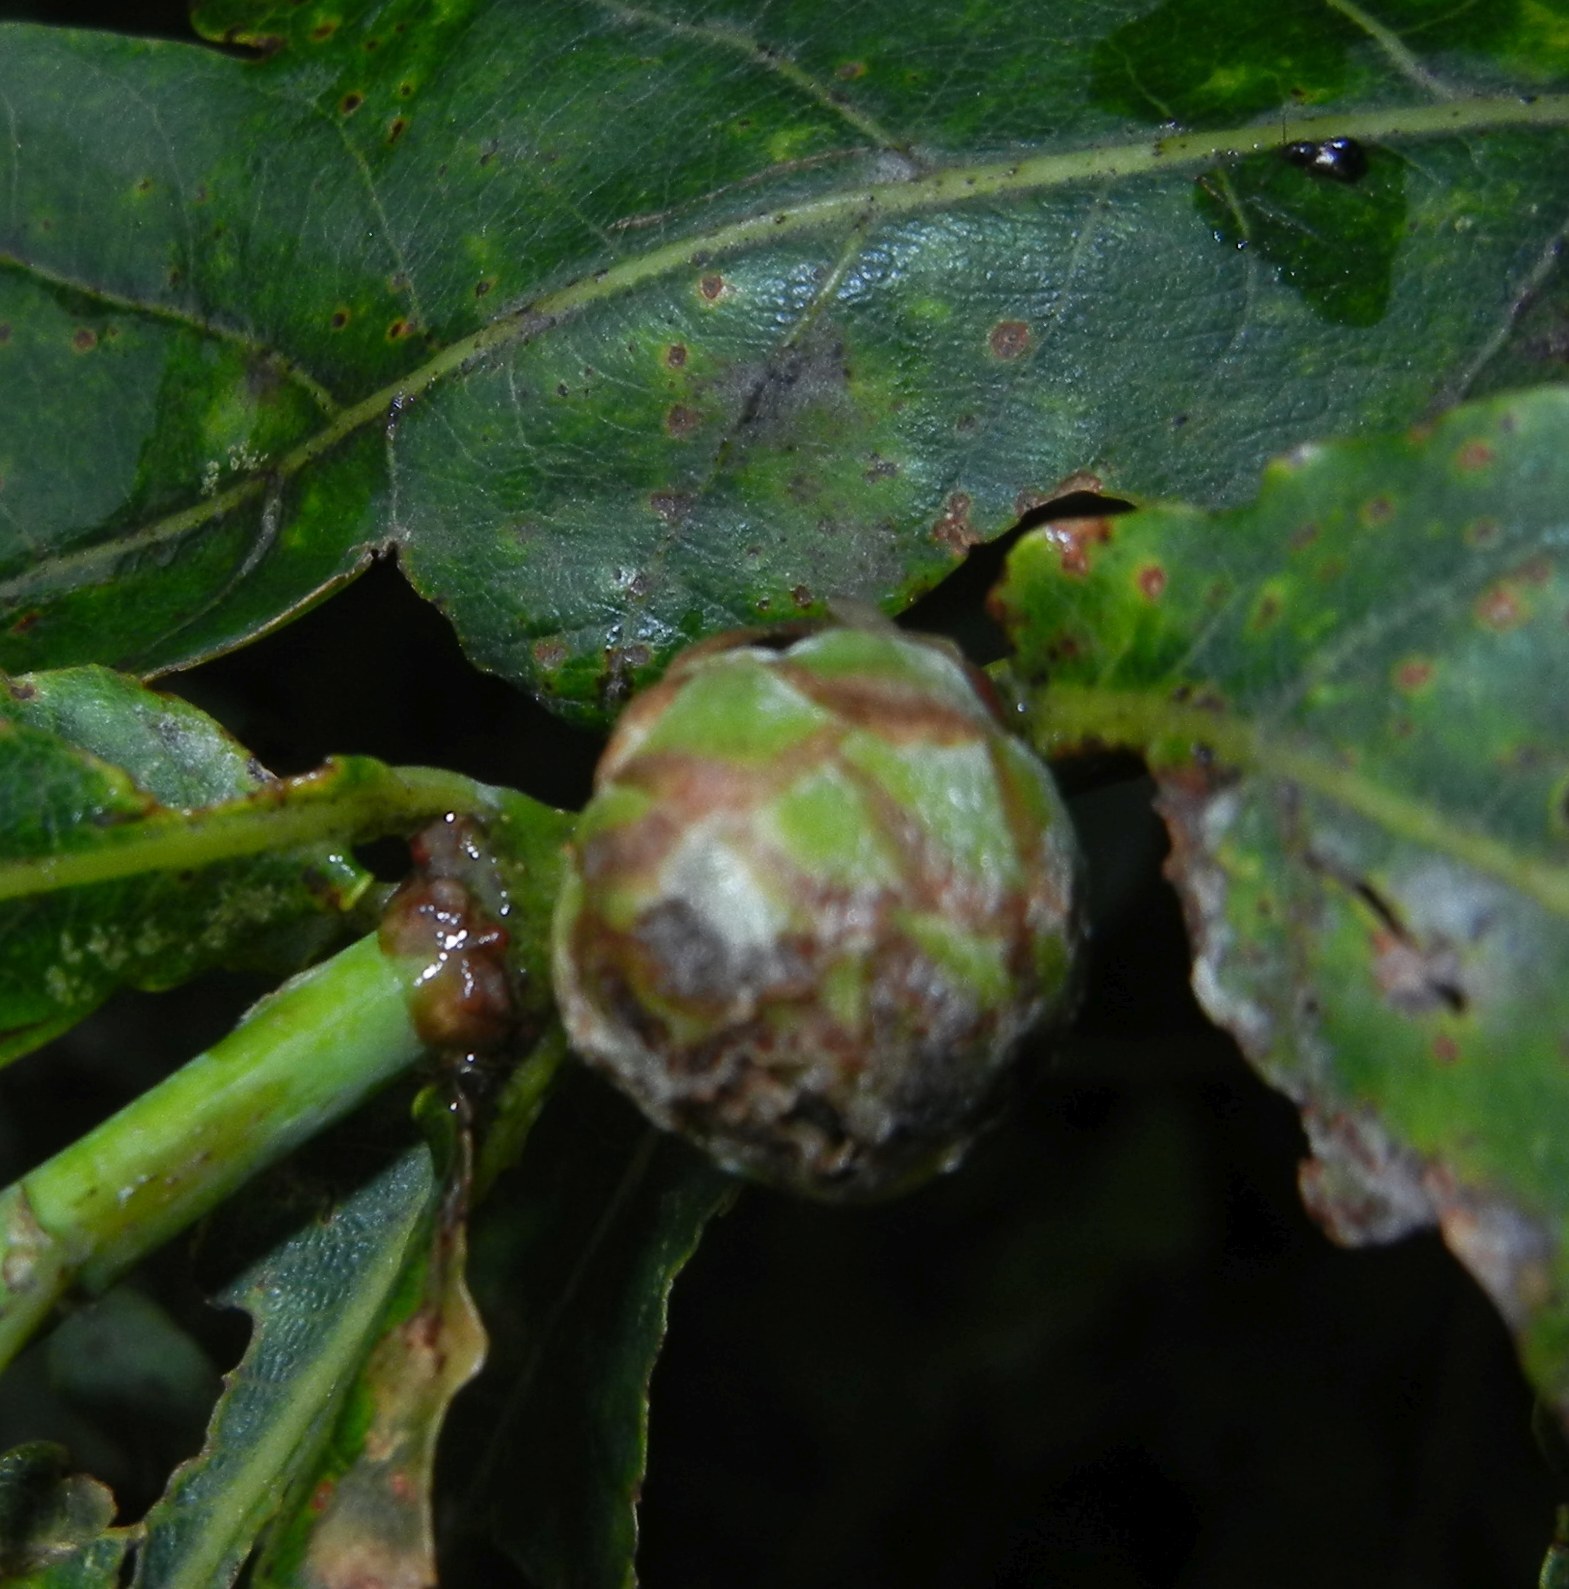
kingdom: Animalia
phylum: Arthropoda
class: Insecta
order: Hymenoptera
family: Cynipidae
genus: Andricus
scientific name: Andricus foecundatrix
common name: Artichoke gall
